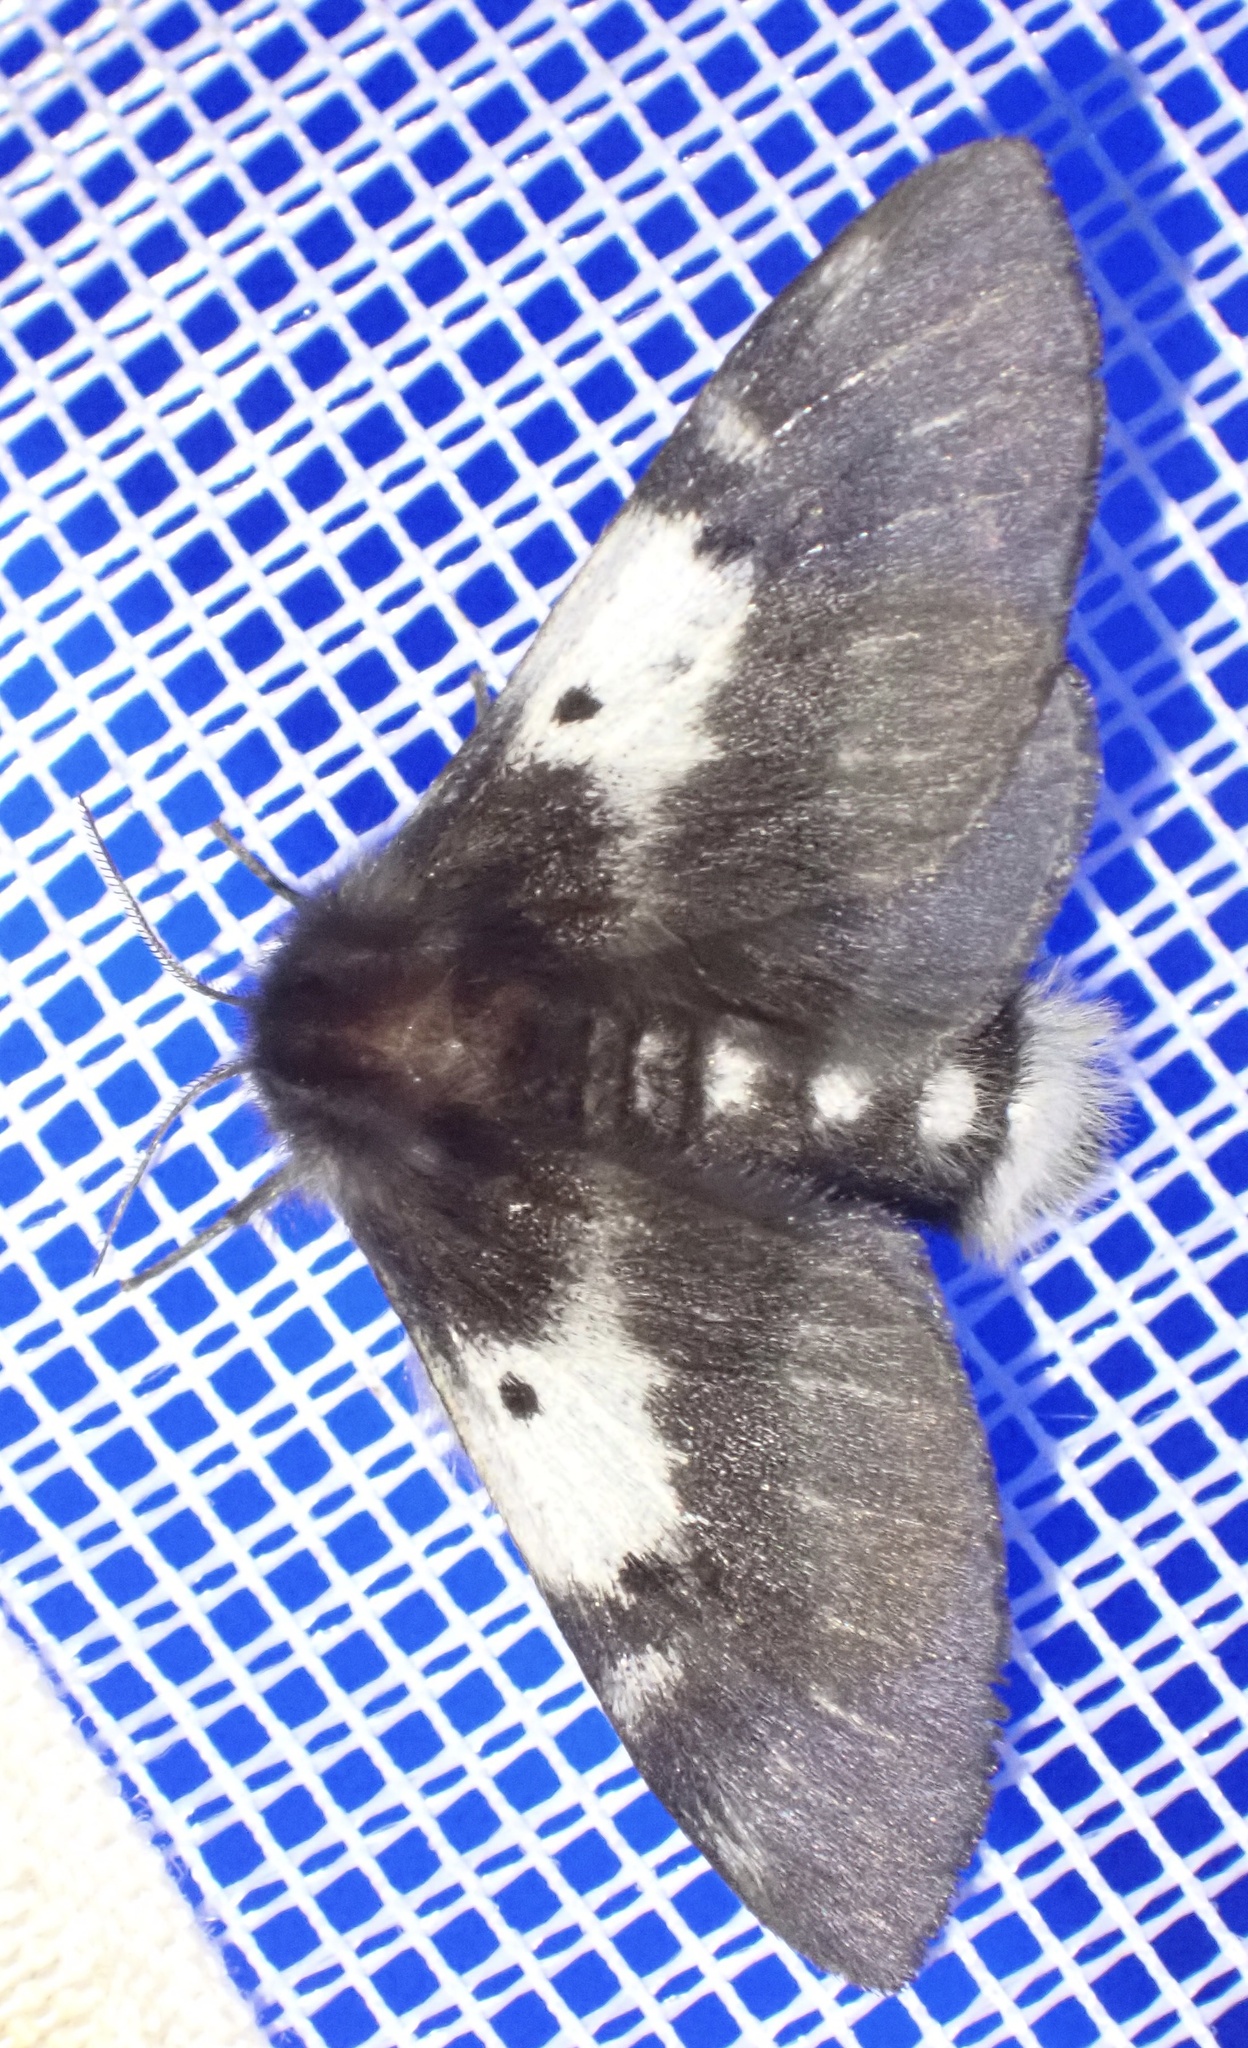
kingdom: Animalia
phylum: Arthropoda
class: Insecta
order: Lepidoptera
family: Anthelidae
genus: Nataxa
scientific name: Nataxa flavescens
